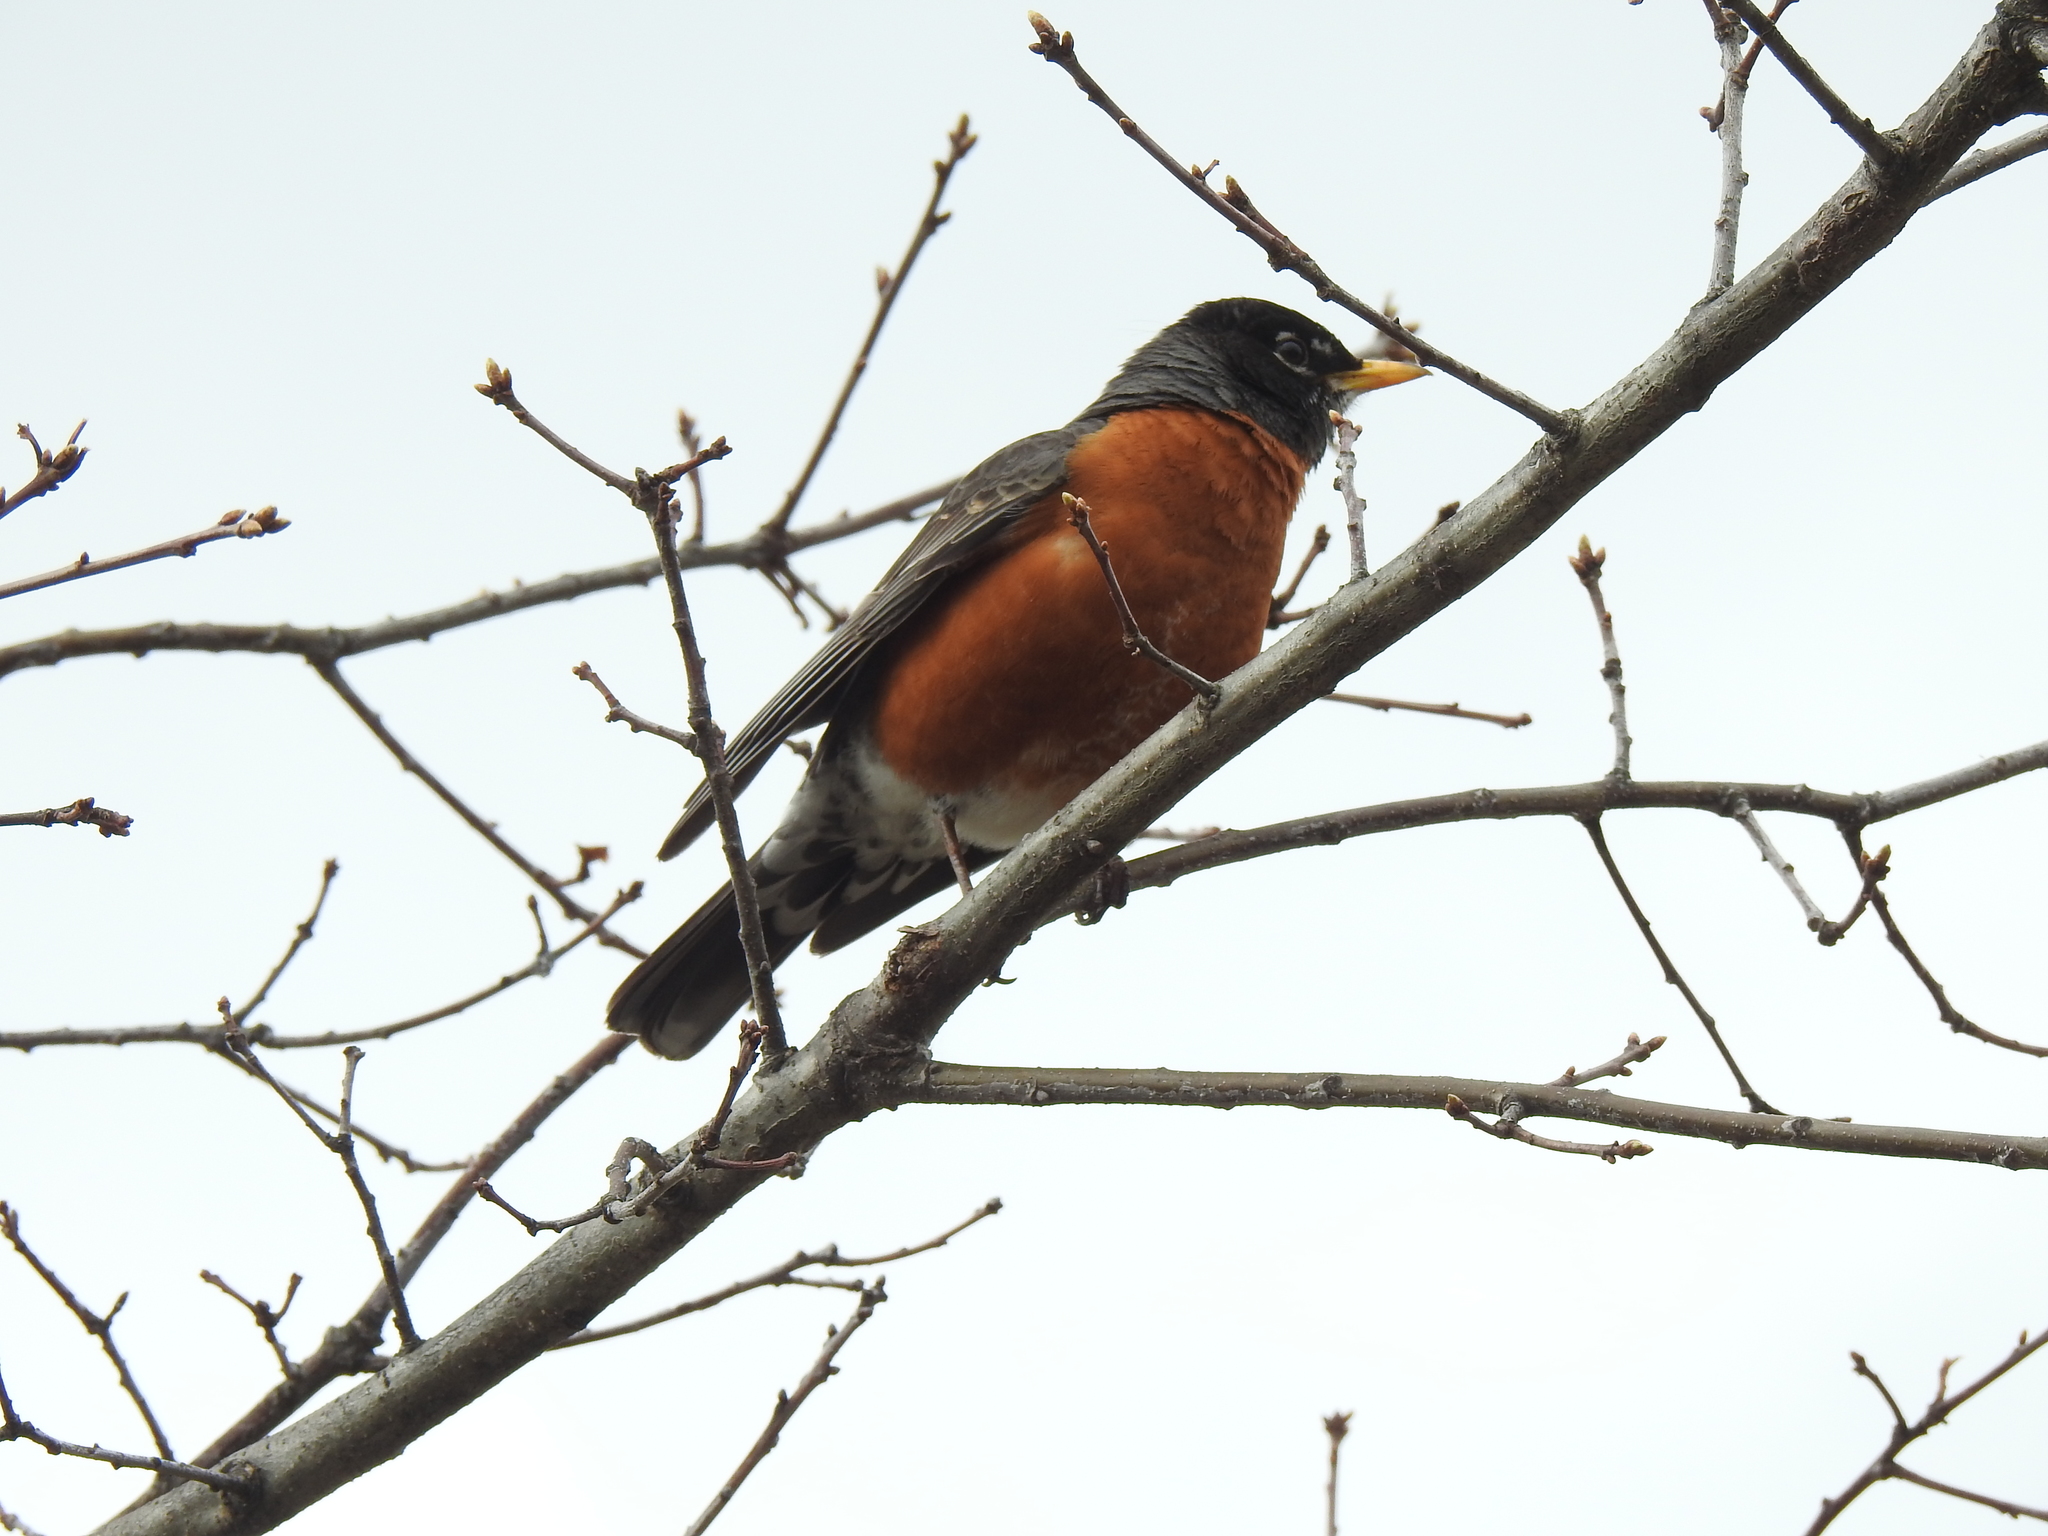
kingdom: Animalia
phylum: Chordata
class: Aves
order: Passeriformes
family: Turdidae
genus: Turdus
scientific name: Turdus migratorius
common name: American robin
